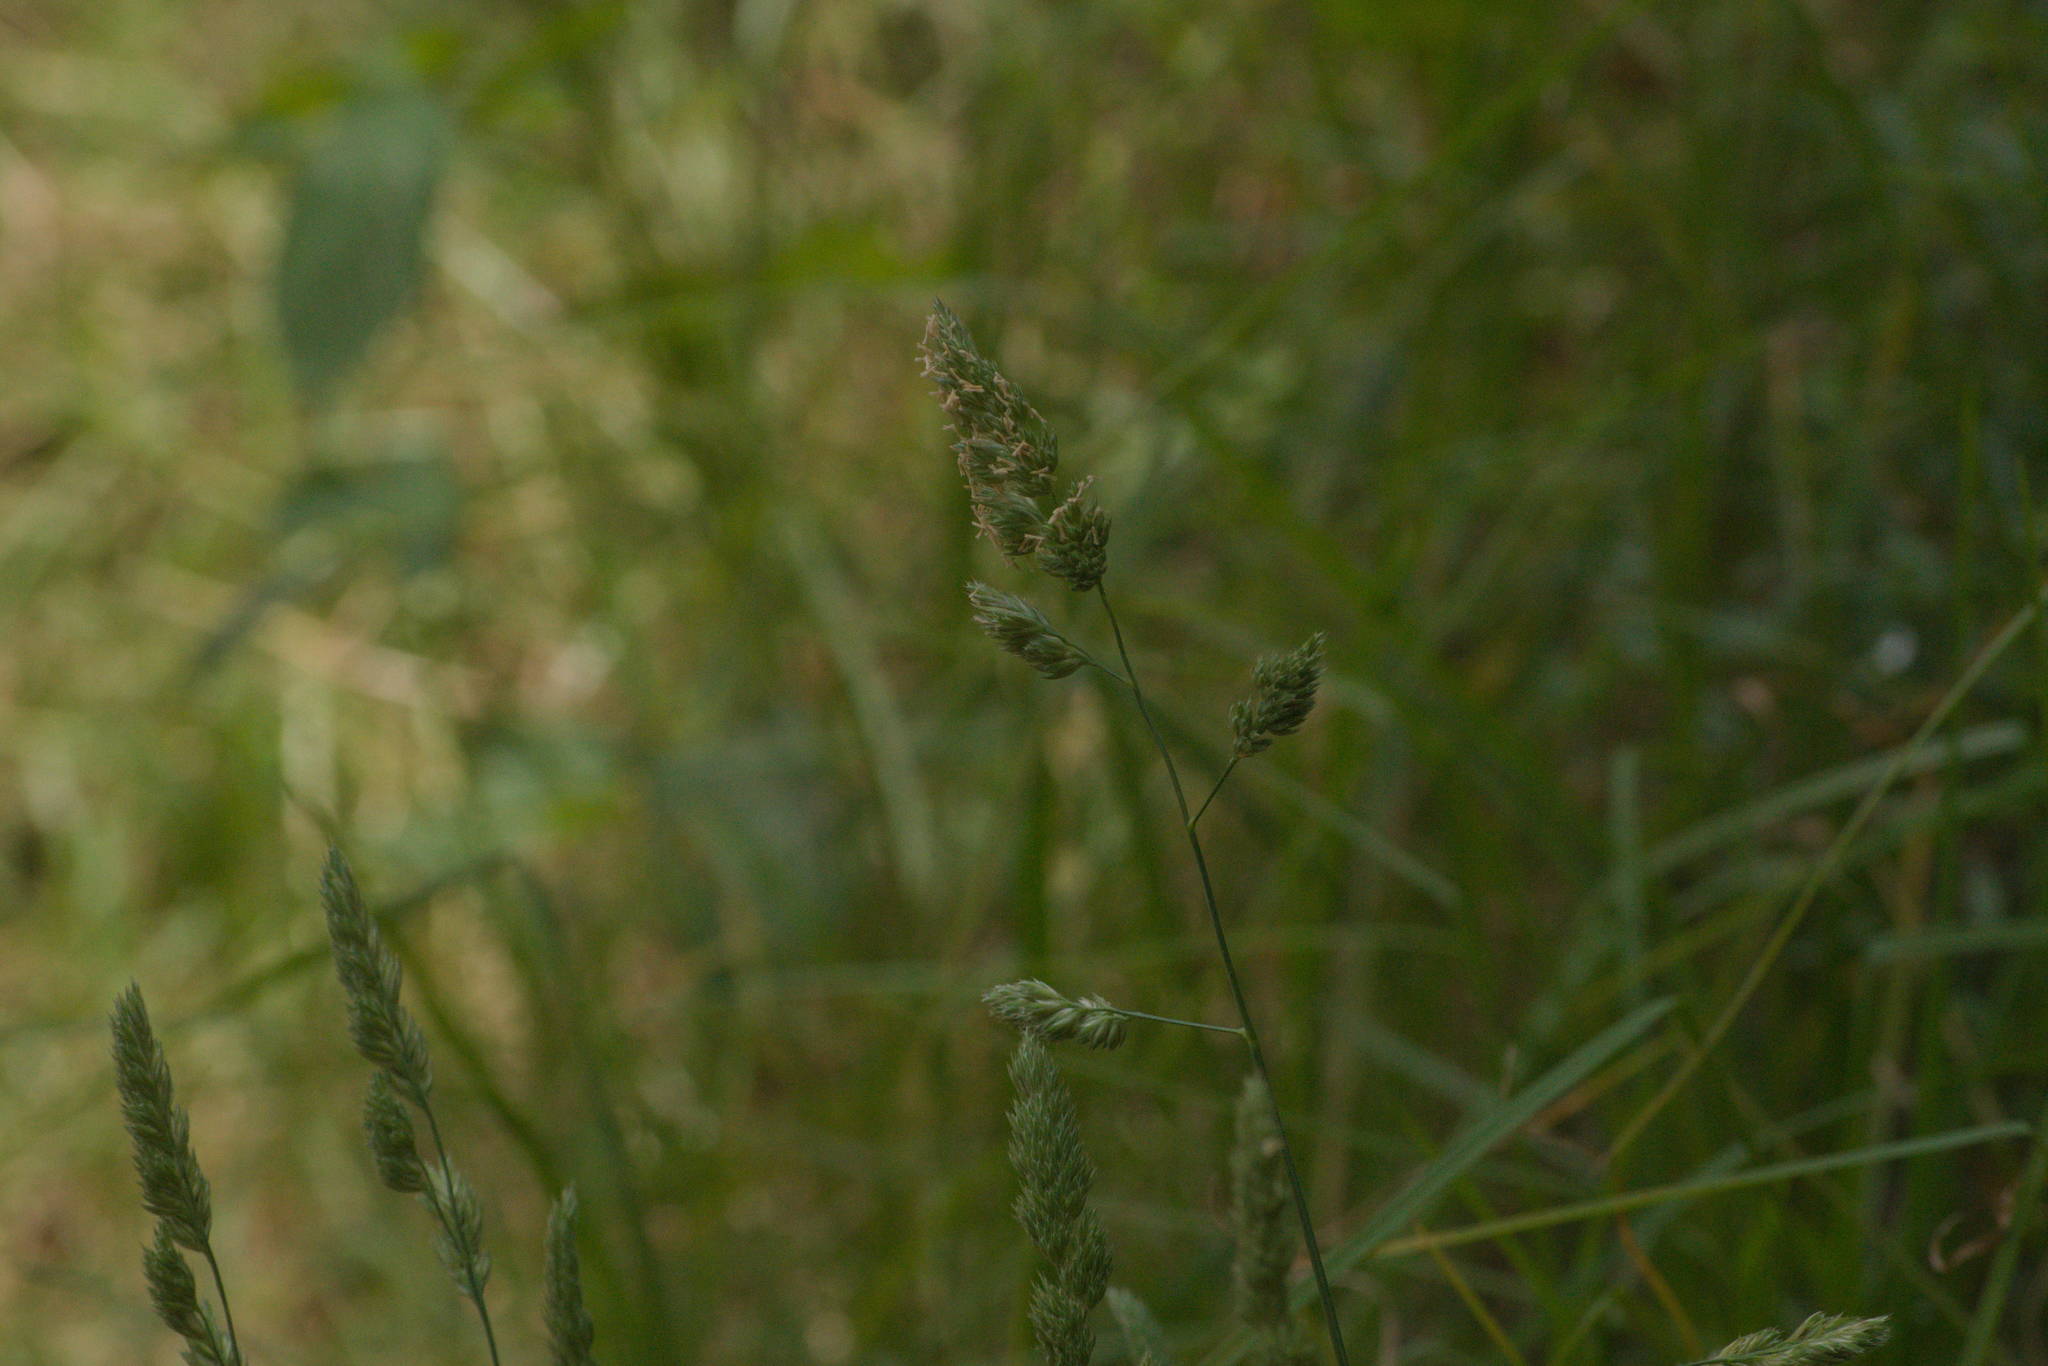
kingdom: Plantae
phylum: Tracheophyta
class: Liliopsida
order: Poales
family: Poaceae
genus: Dactylis
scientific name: Dactylis glomerata
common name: Orchardgrass
